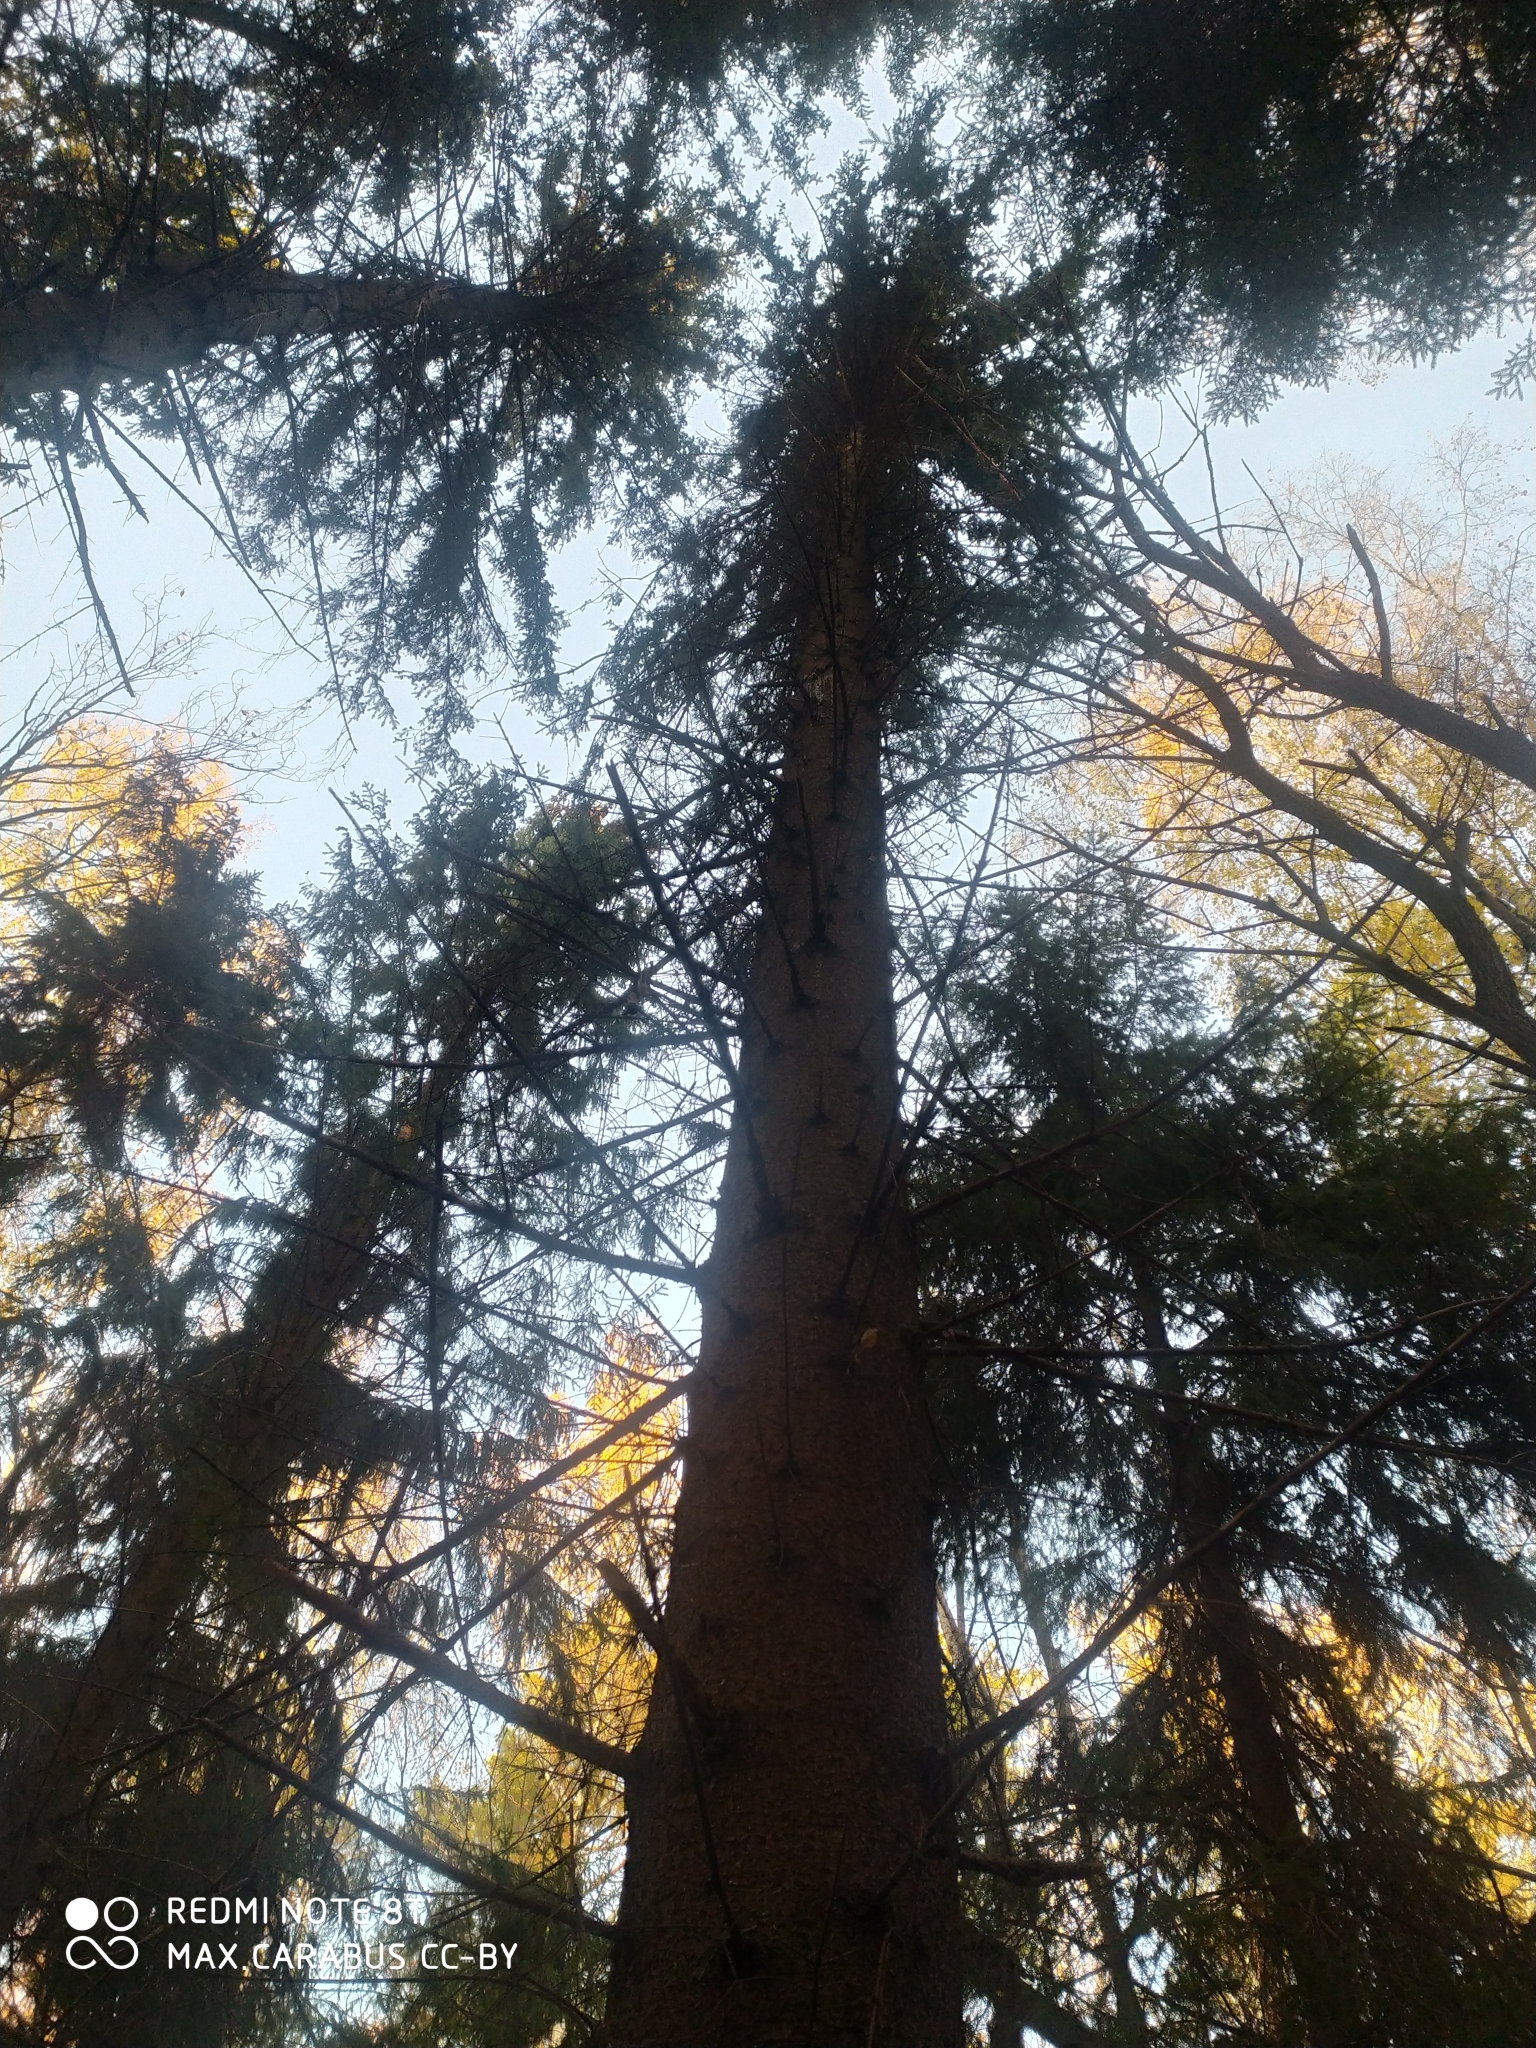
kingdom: Plantae
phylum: Tracheophyta
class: Pinopsida
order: Pinales
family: Pinaceae
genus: Picea
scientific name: Picea abies
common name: Norway spruce
